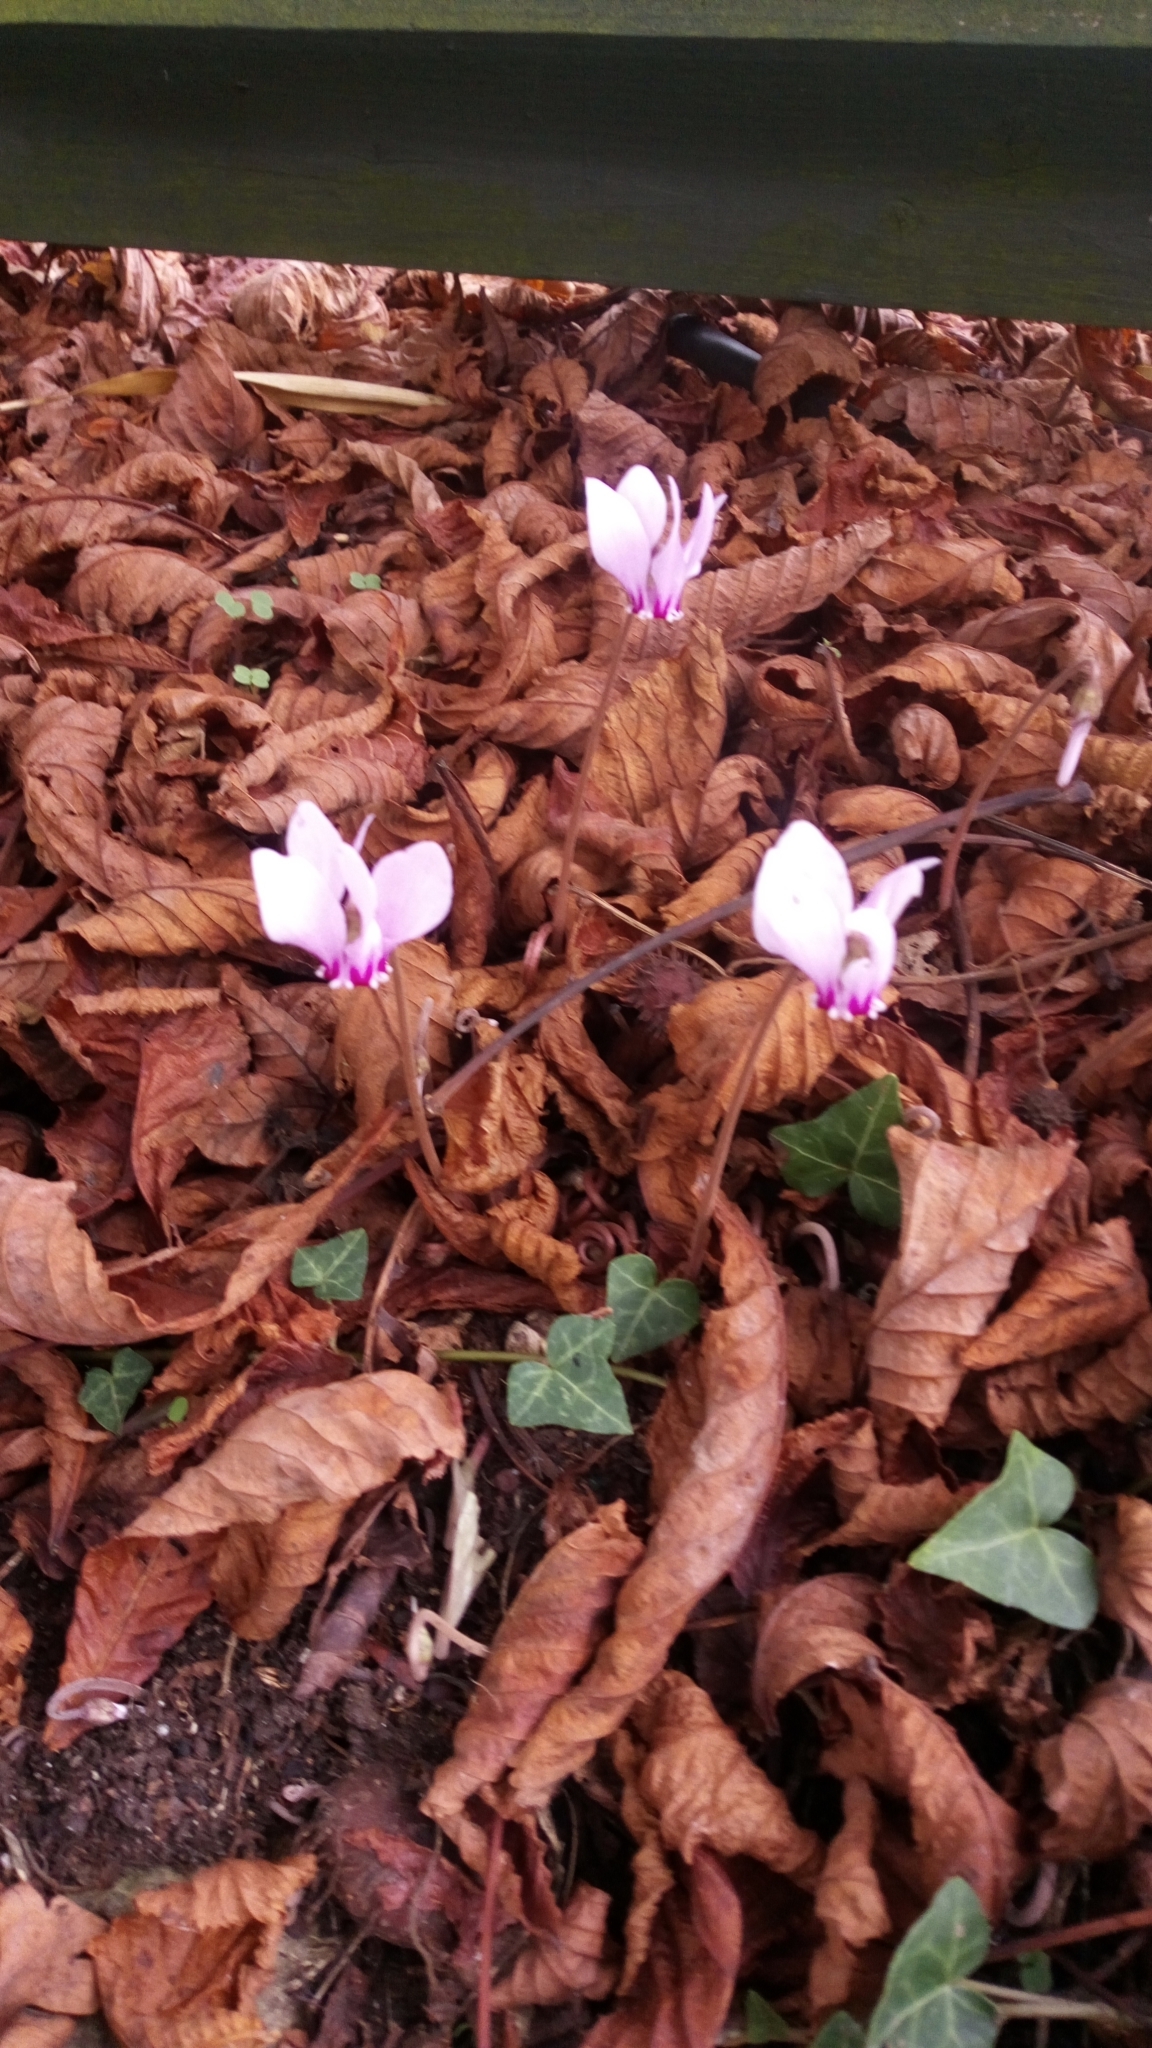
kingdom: Plantae
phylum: Tracheophyta
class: Magnoliopsida
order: Ericales
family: Primulaceae
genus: Cyclamen
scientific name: Cyclamen hederifolium
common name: Sowbread
